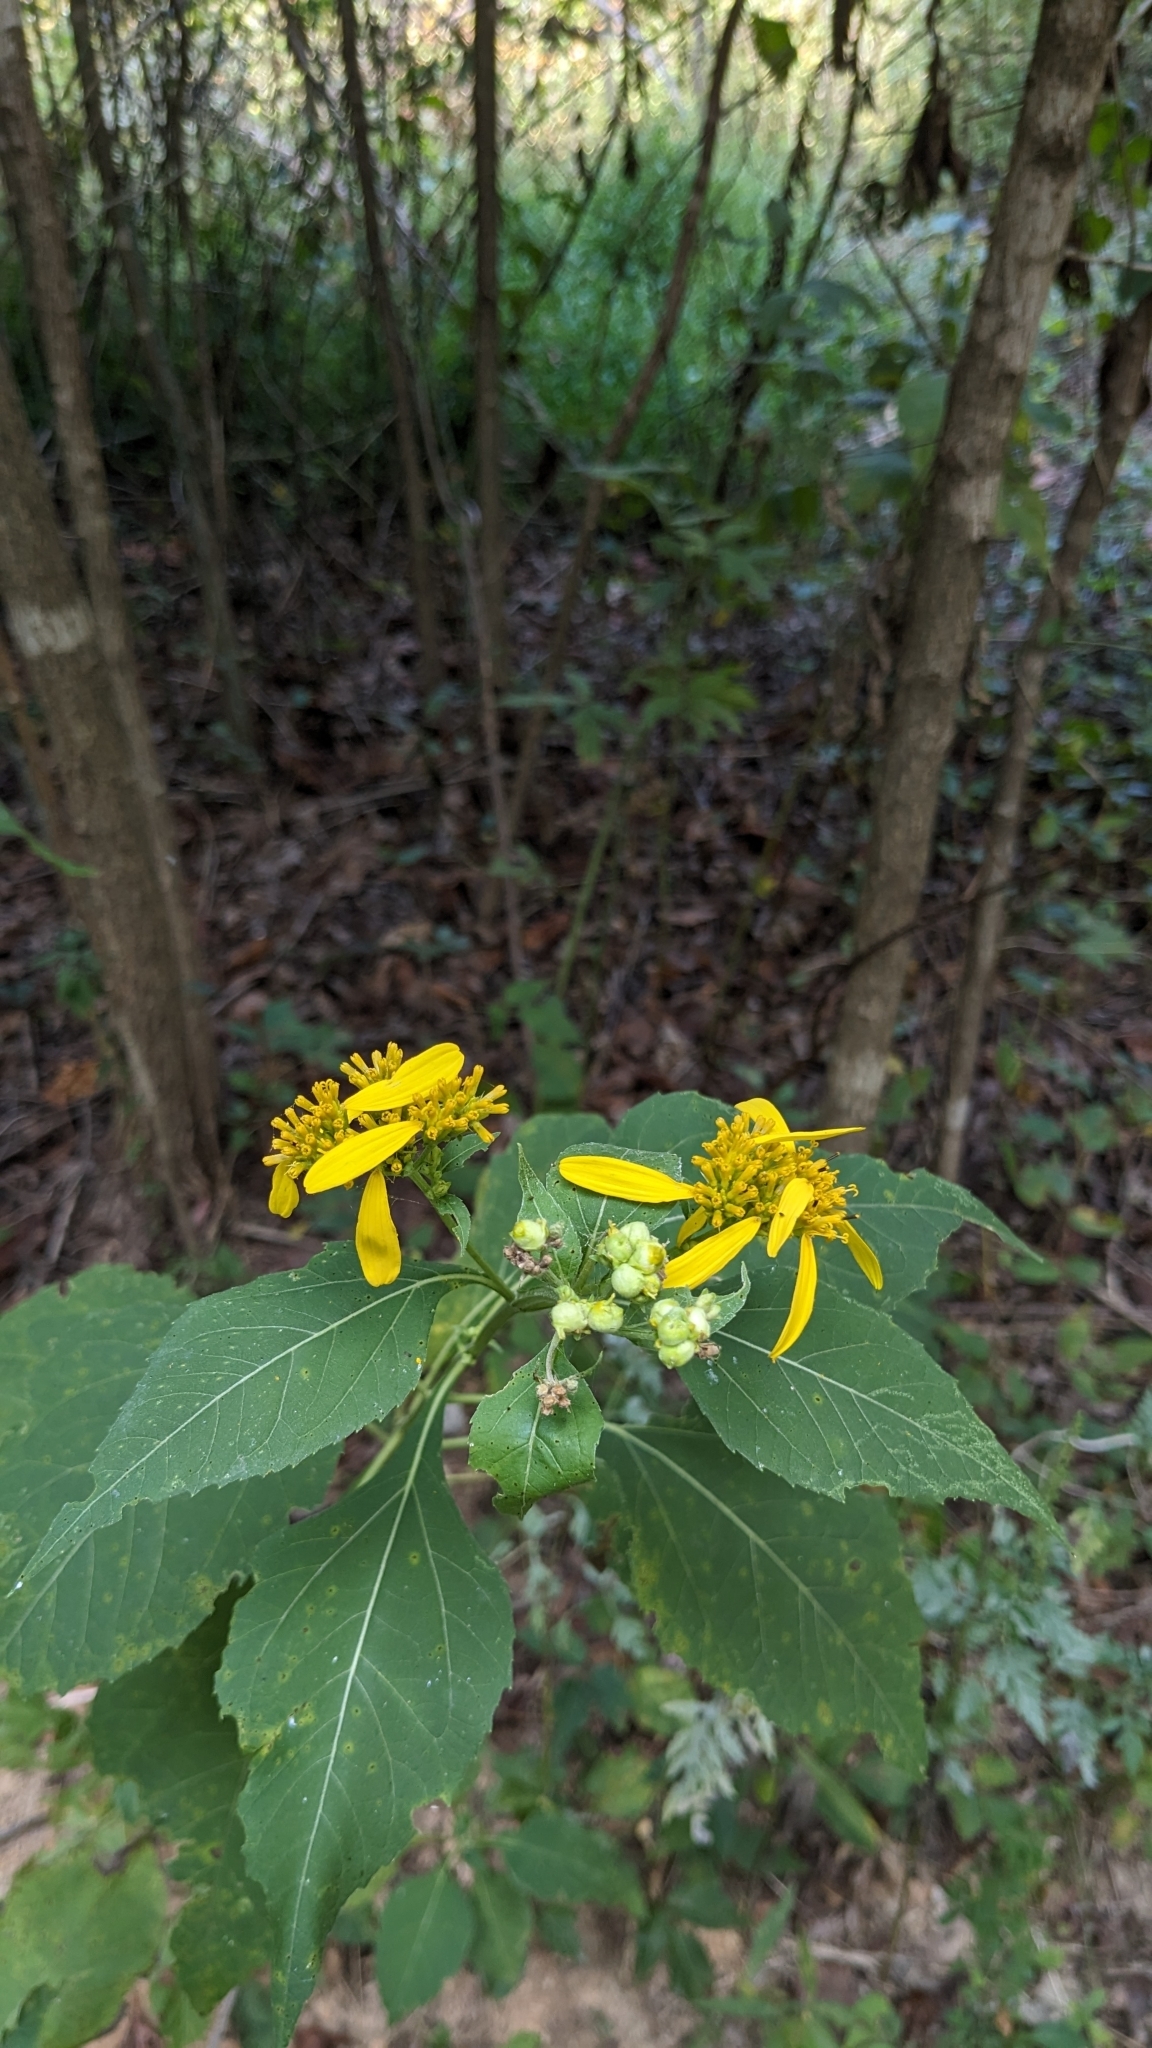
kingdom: Plantae
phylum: Tracheophyta
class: Magnoliopsida
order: Asterales
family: Asteraceae
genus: Verbesina
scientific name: Verbesina occidentalis
